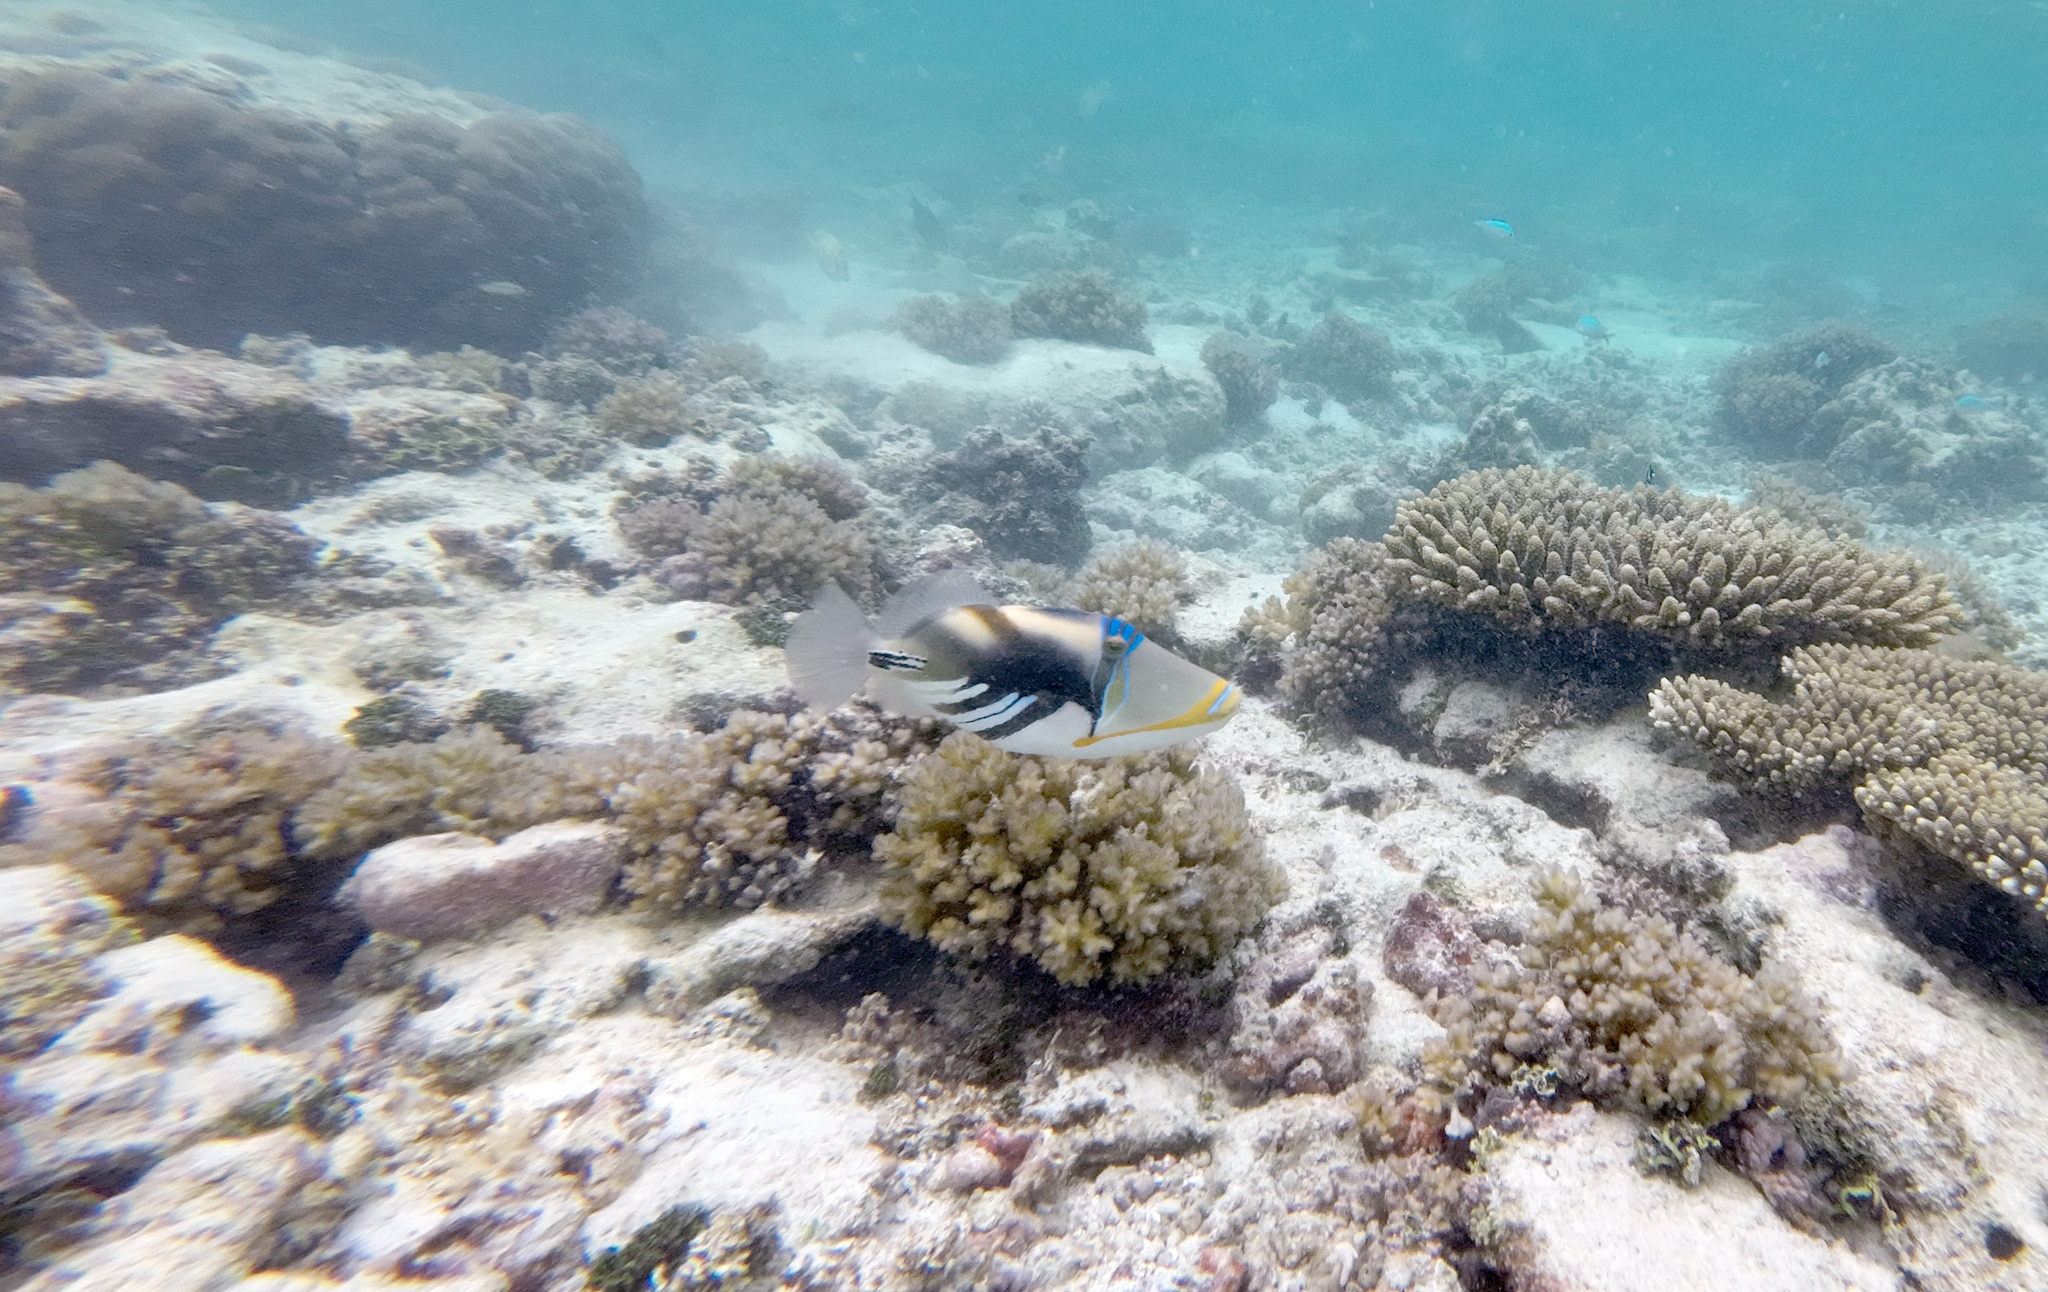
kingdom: Animalia
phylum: Chordata
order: Tetraodontiformes
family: Balistidae
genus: Rhinecanthus
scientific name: Rhinecanthus aculeatus
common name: White-banded triggerfish
